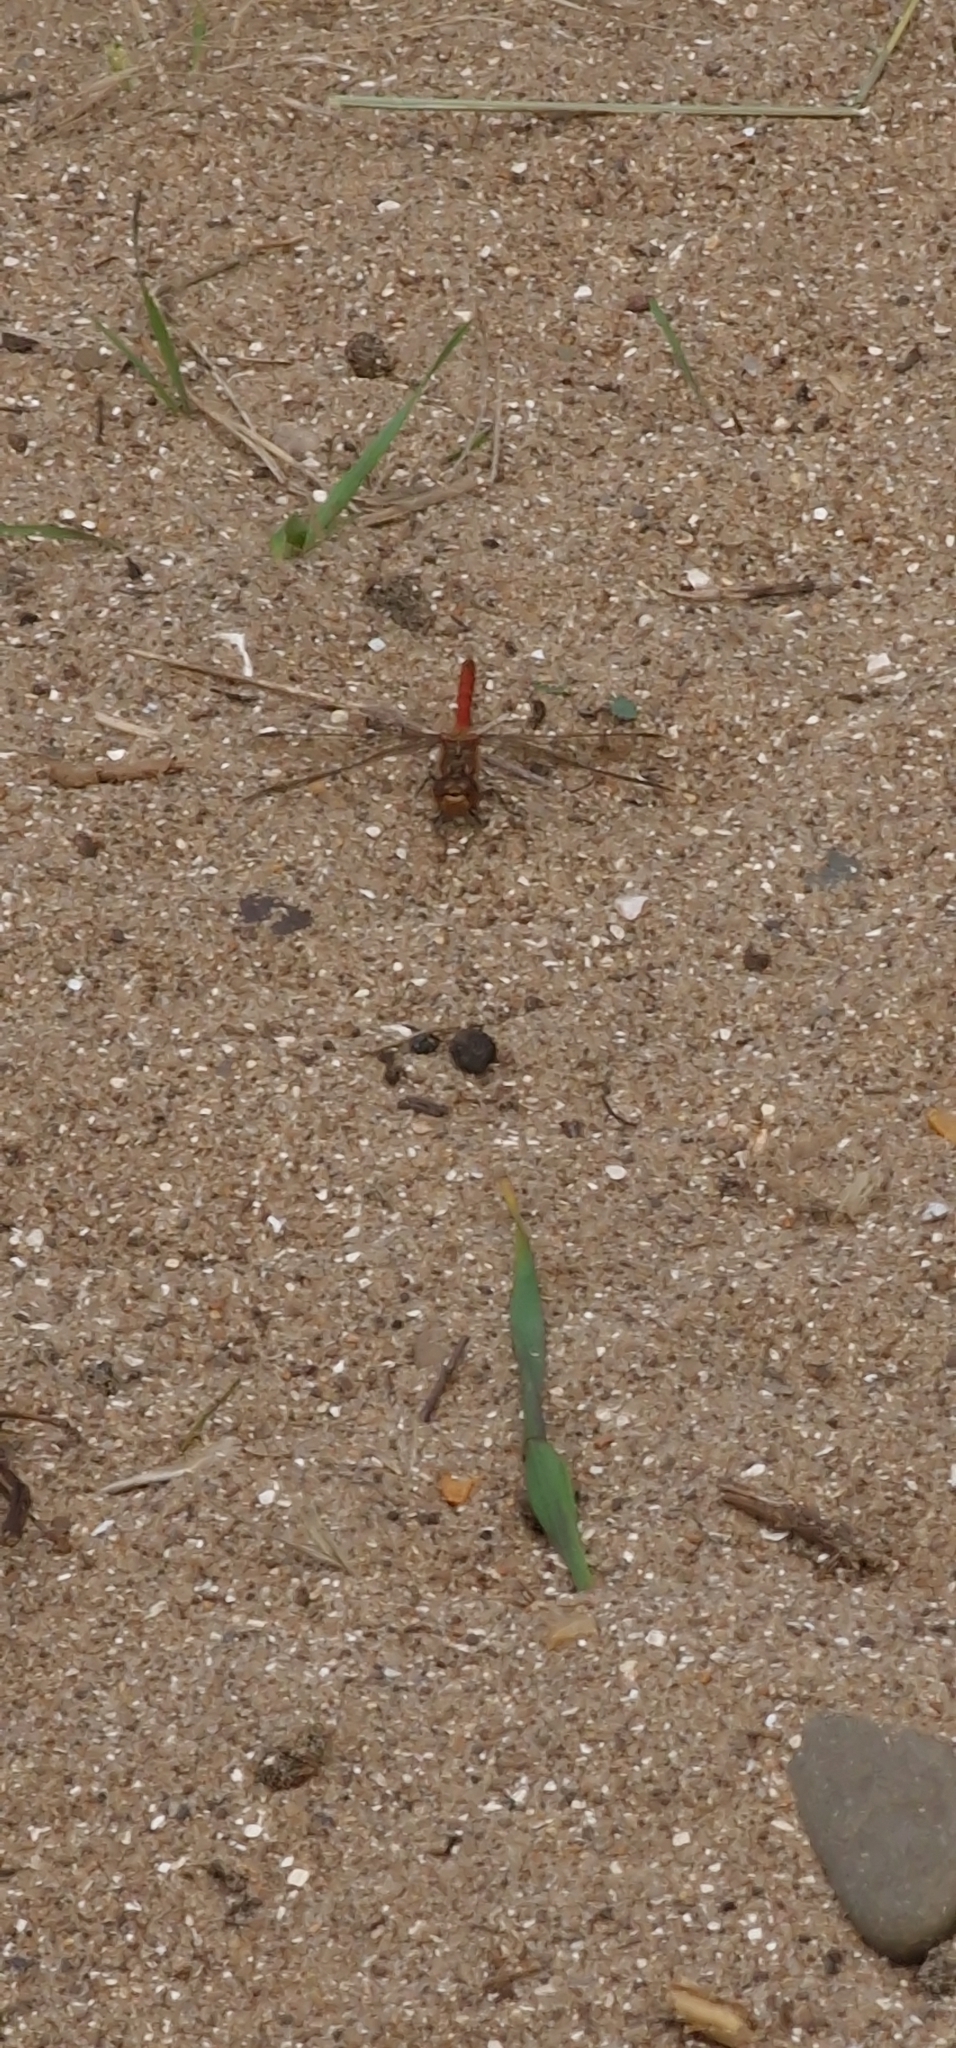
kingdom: Animalia
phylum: Arthropoda
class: Insecta
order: Odonata
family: Libellulidae
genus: Sympetrum
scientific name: Sympetrum striolatum
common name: Common darter
